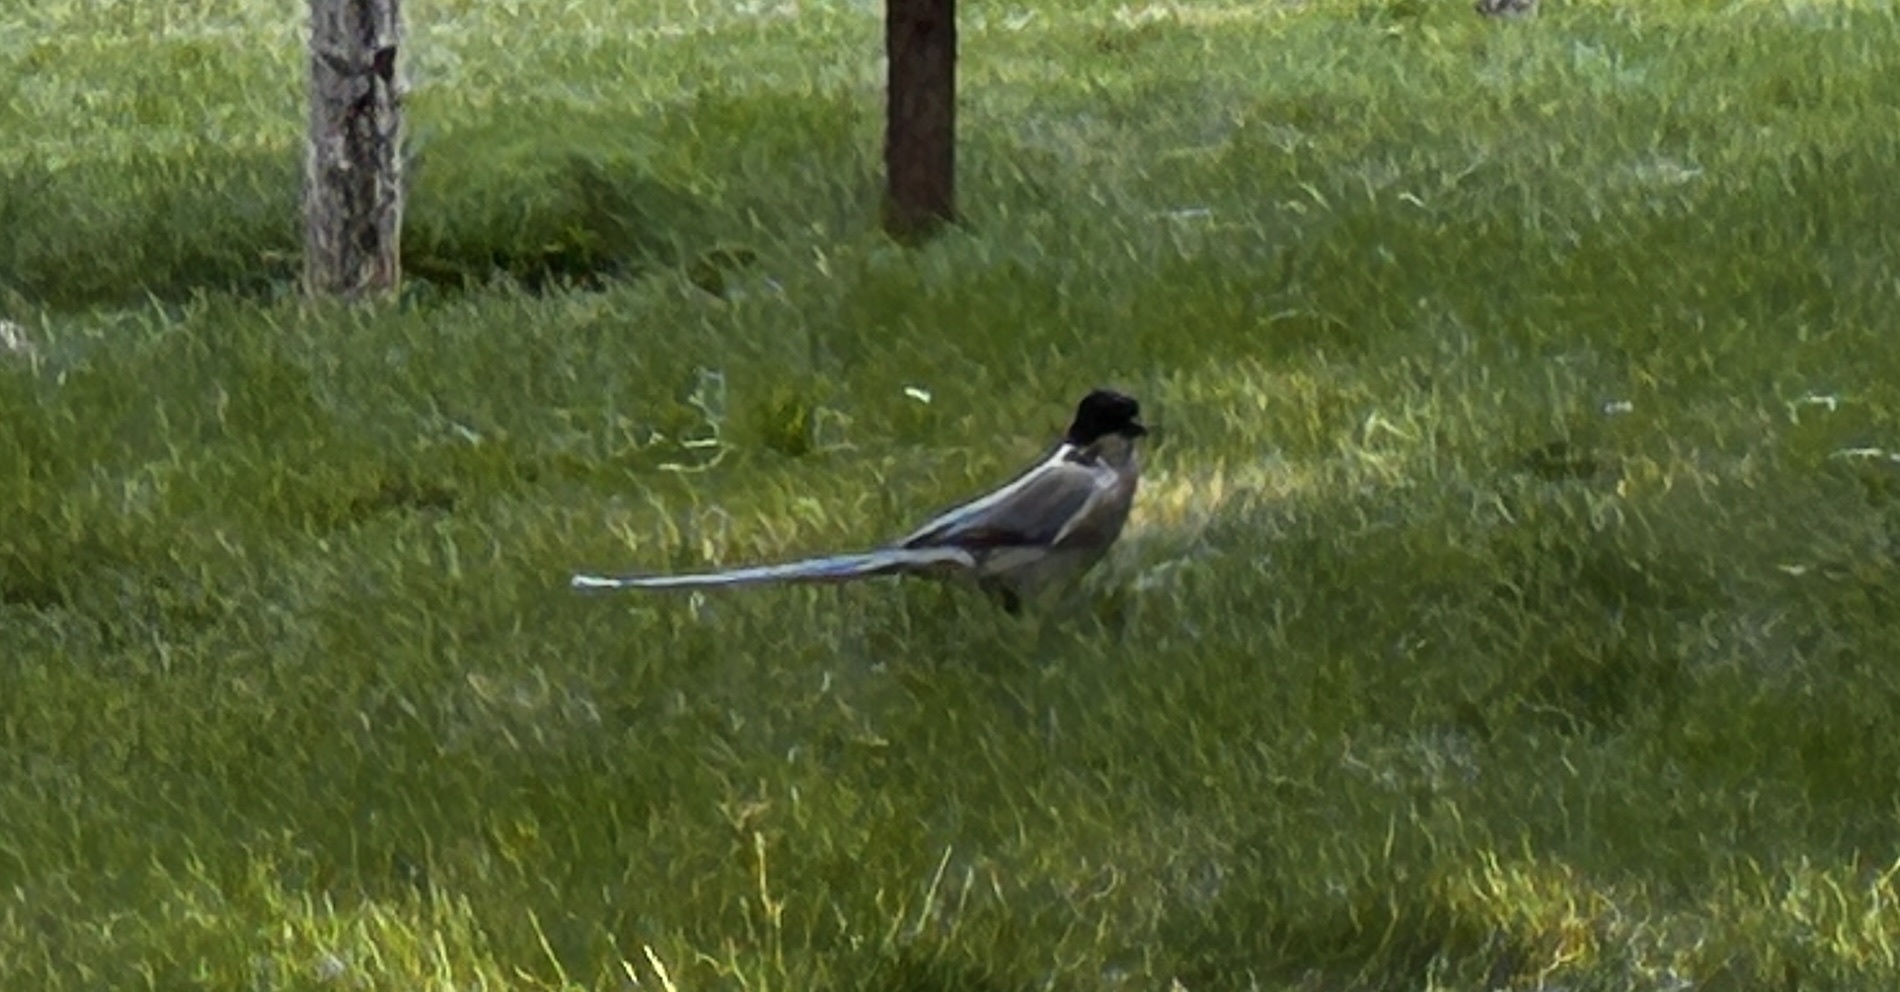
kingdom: Animalia
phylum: Chordata
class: Aves
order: Passeriformes
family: Corvidae
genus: Cyanopica
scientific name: Cyanopica cyanus
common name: Azure-winged magpie
